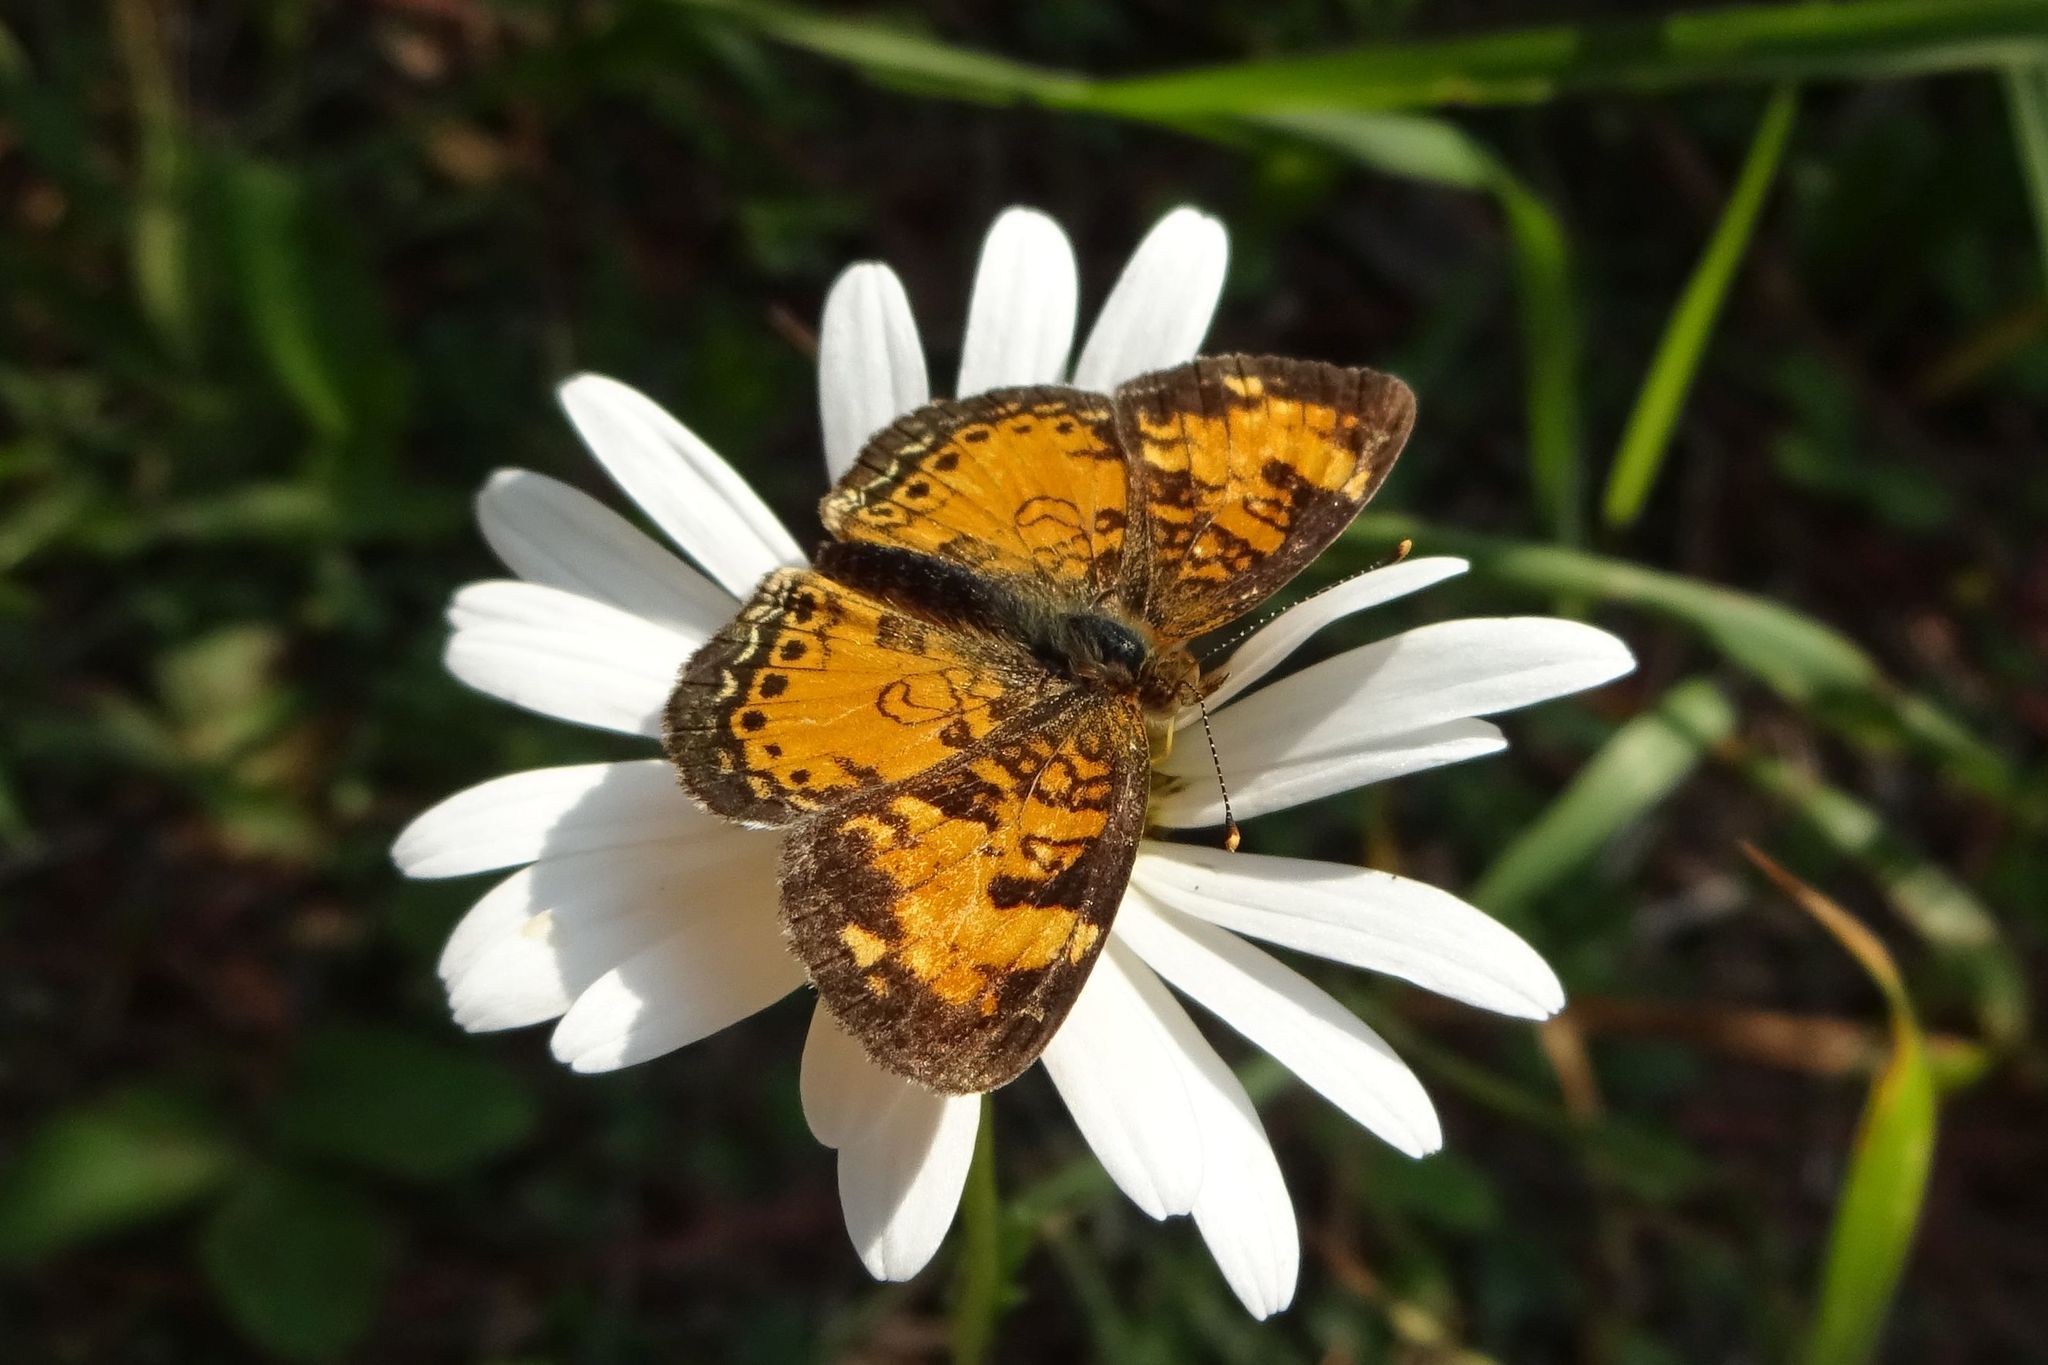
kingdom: Animalia
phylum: Arthropoda
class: Insecta
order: Lepidoptera
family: Nymphalidae
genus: Phyciodes
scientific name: Phyciodes tharos
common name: Pearl crescent
